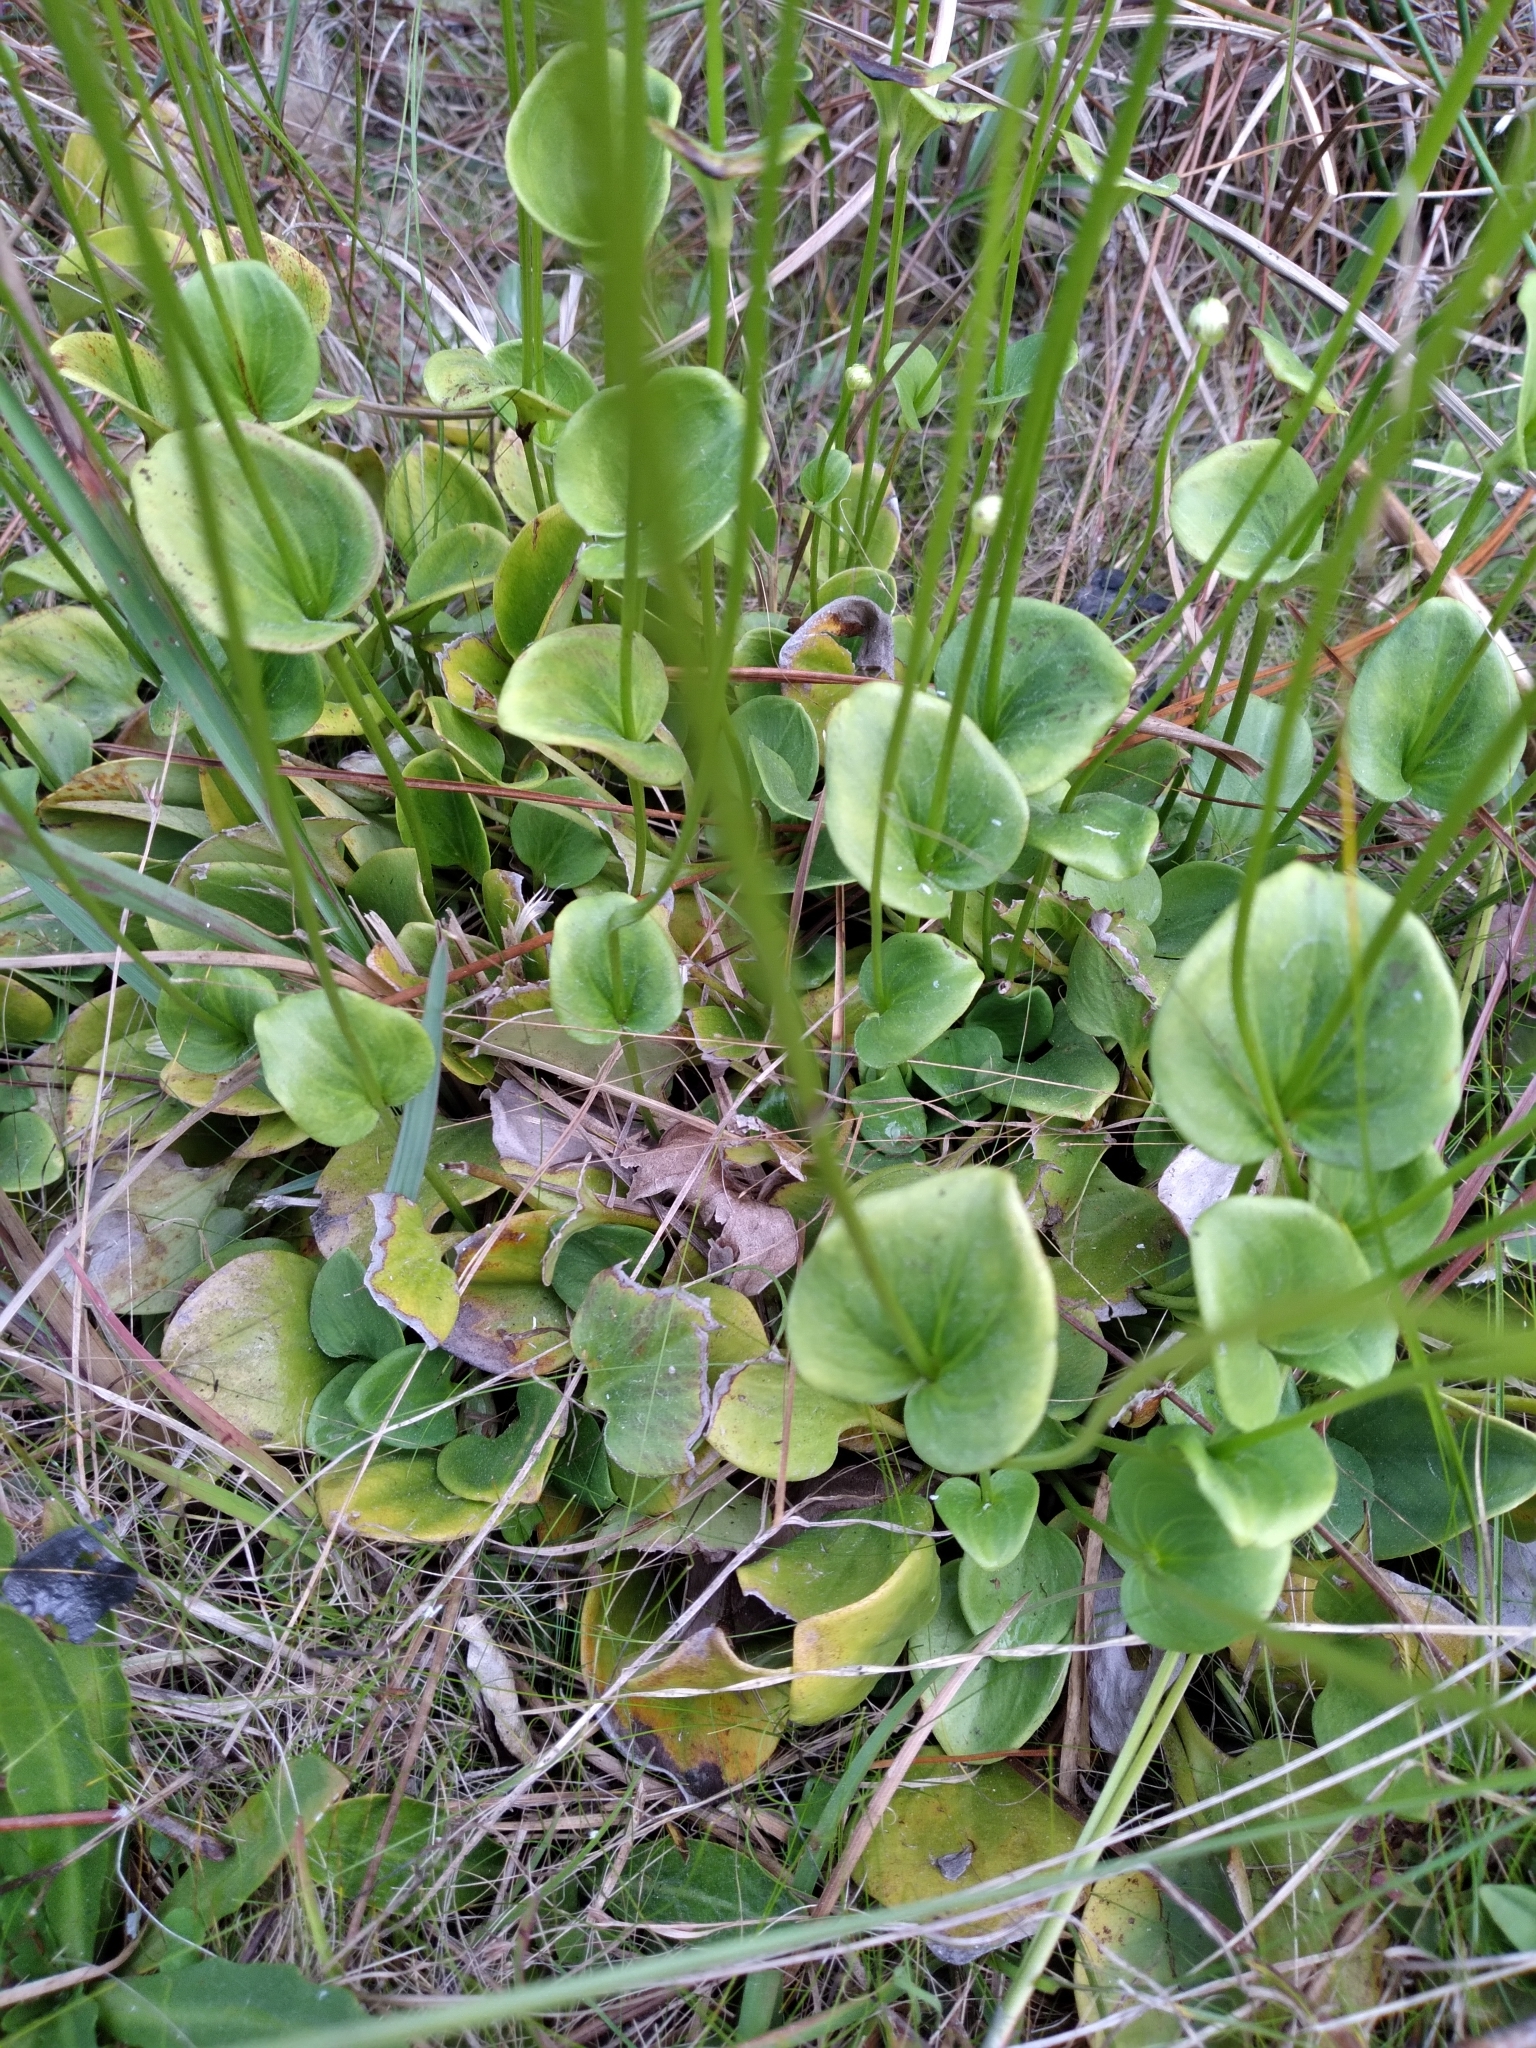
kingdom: Plantae
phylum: Tracheophyta
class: Magnoliopsida
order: Celastrales
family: Parnassiaceae
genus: Parnassia
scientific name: Parnassia grandifolia
